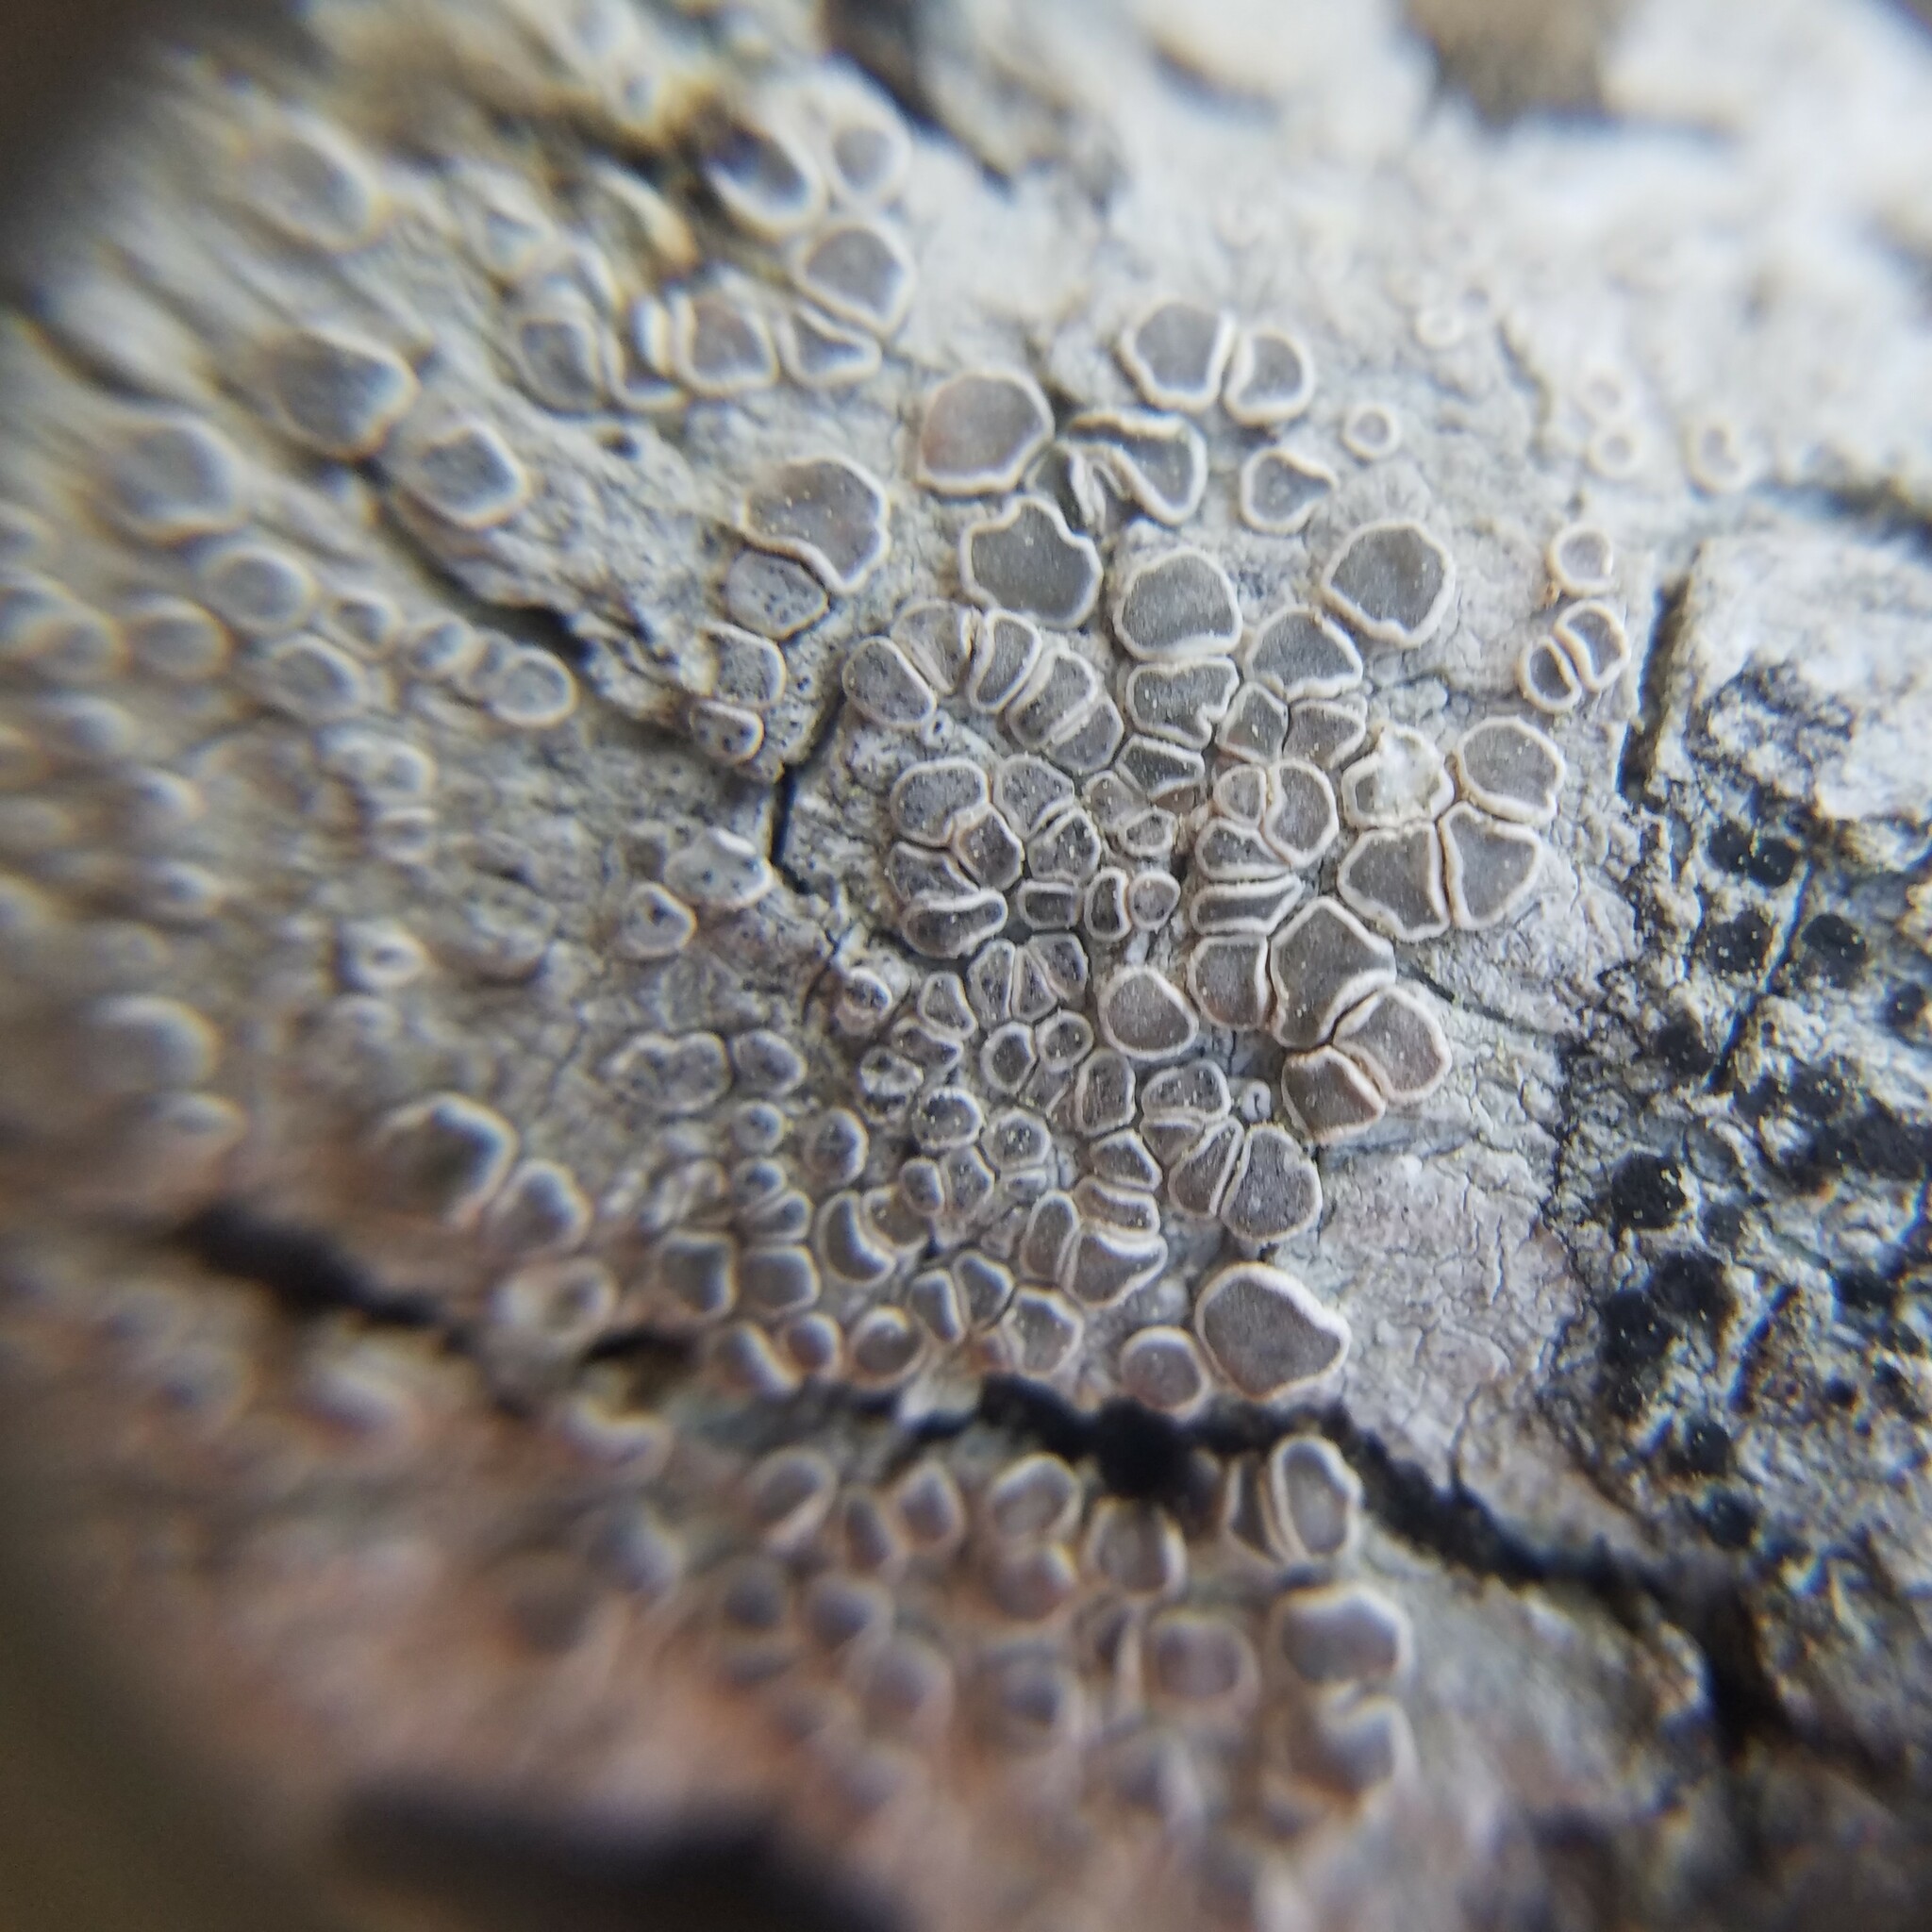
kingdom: Fungi
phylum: Ascomycota
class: Lecanoromycetes
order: Lecanorales
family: Lecanoraceae
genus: Lecanora
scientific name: Lecanora protervula
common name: Lesser dust my discs
